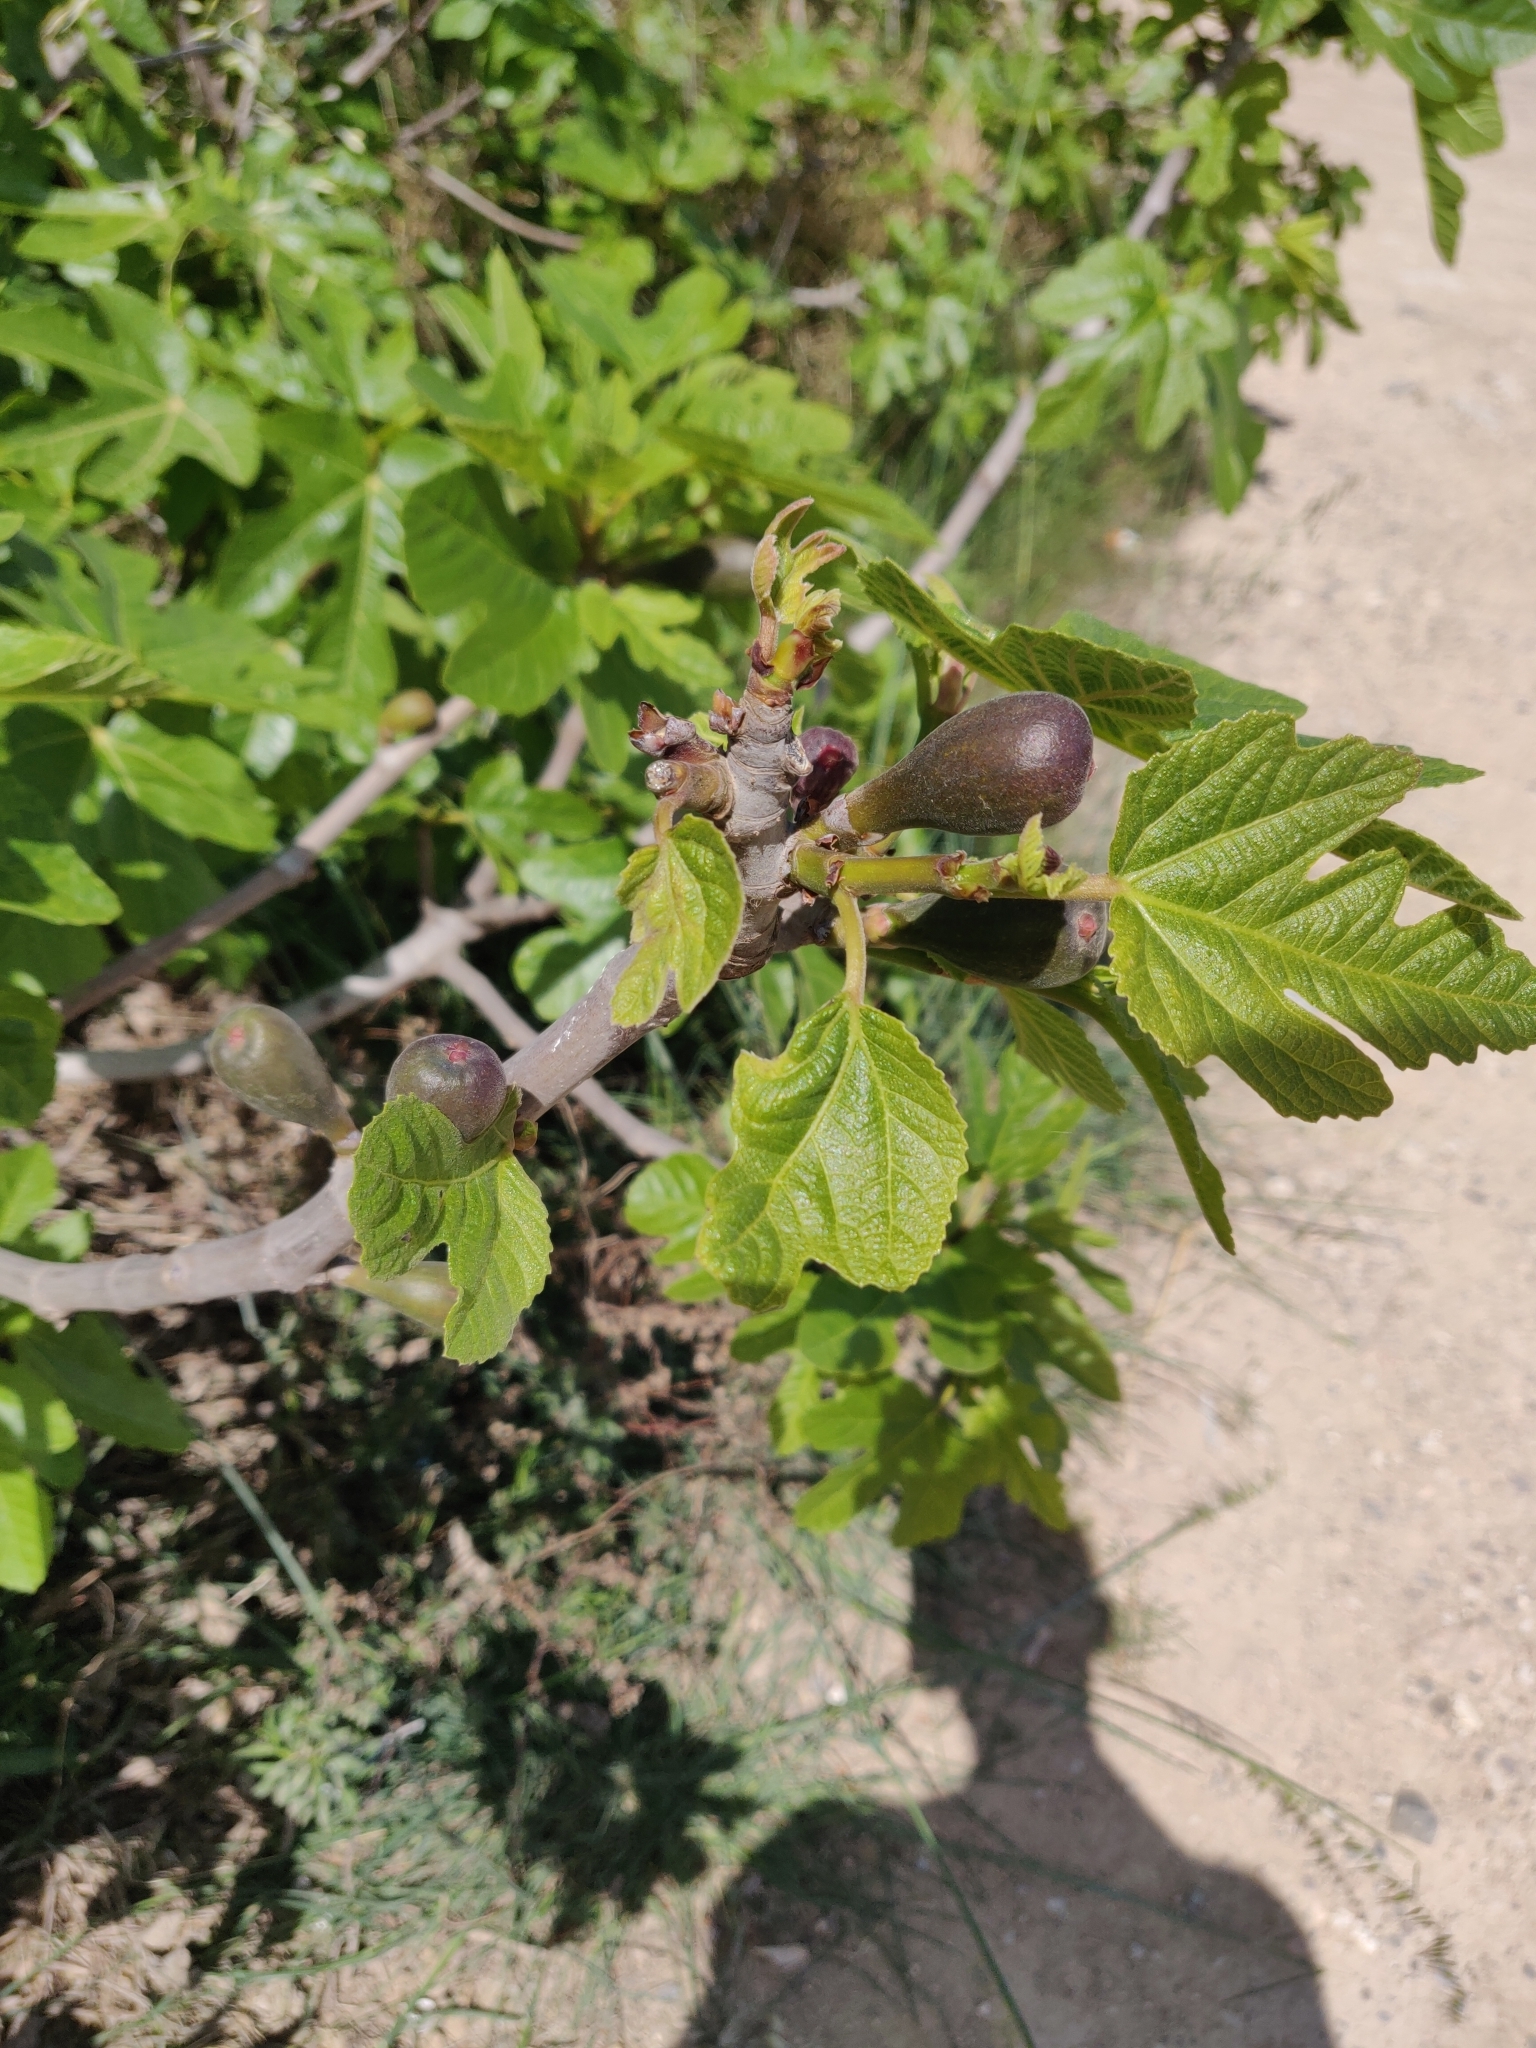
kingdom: Plantae
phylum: Tracheophyta
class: Magnoliopsida
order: Rosales
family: Moraceae
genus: Ficus
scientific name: Ficus carica
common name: Fig
